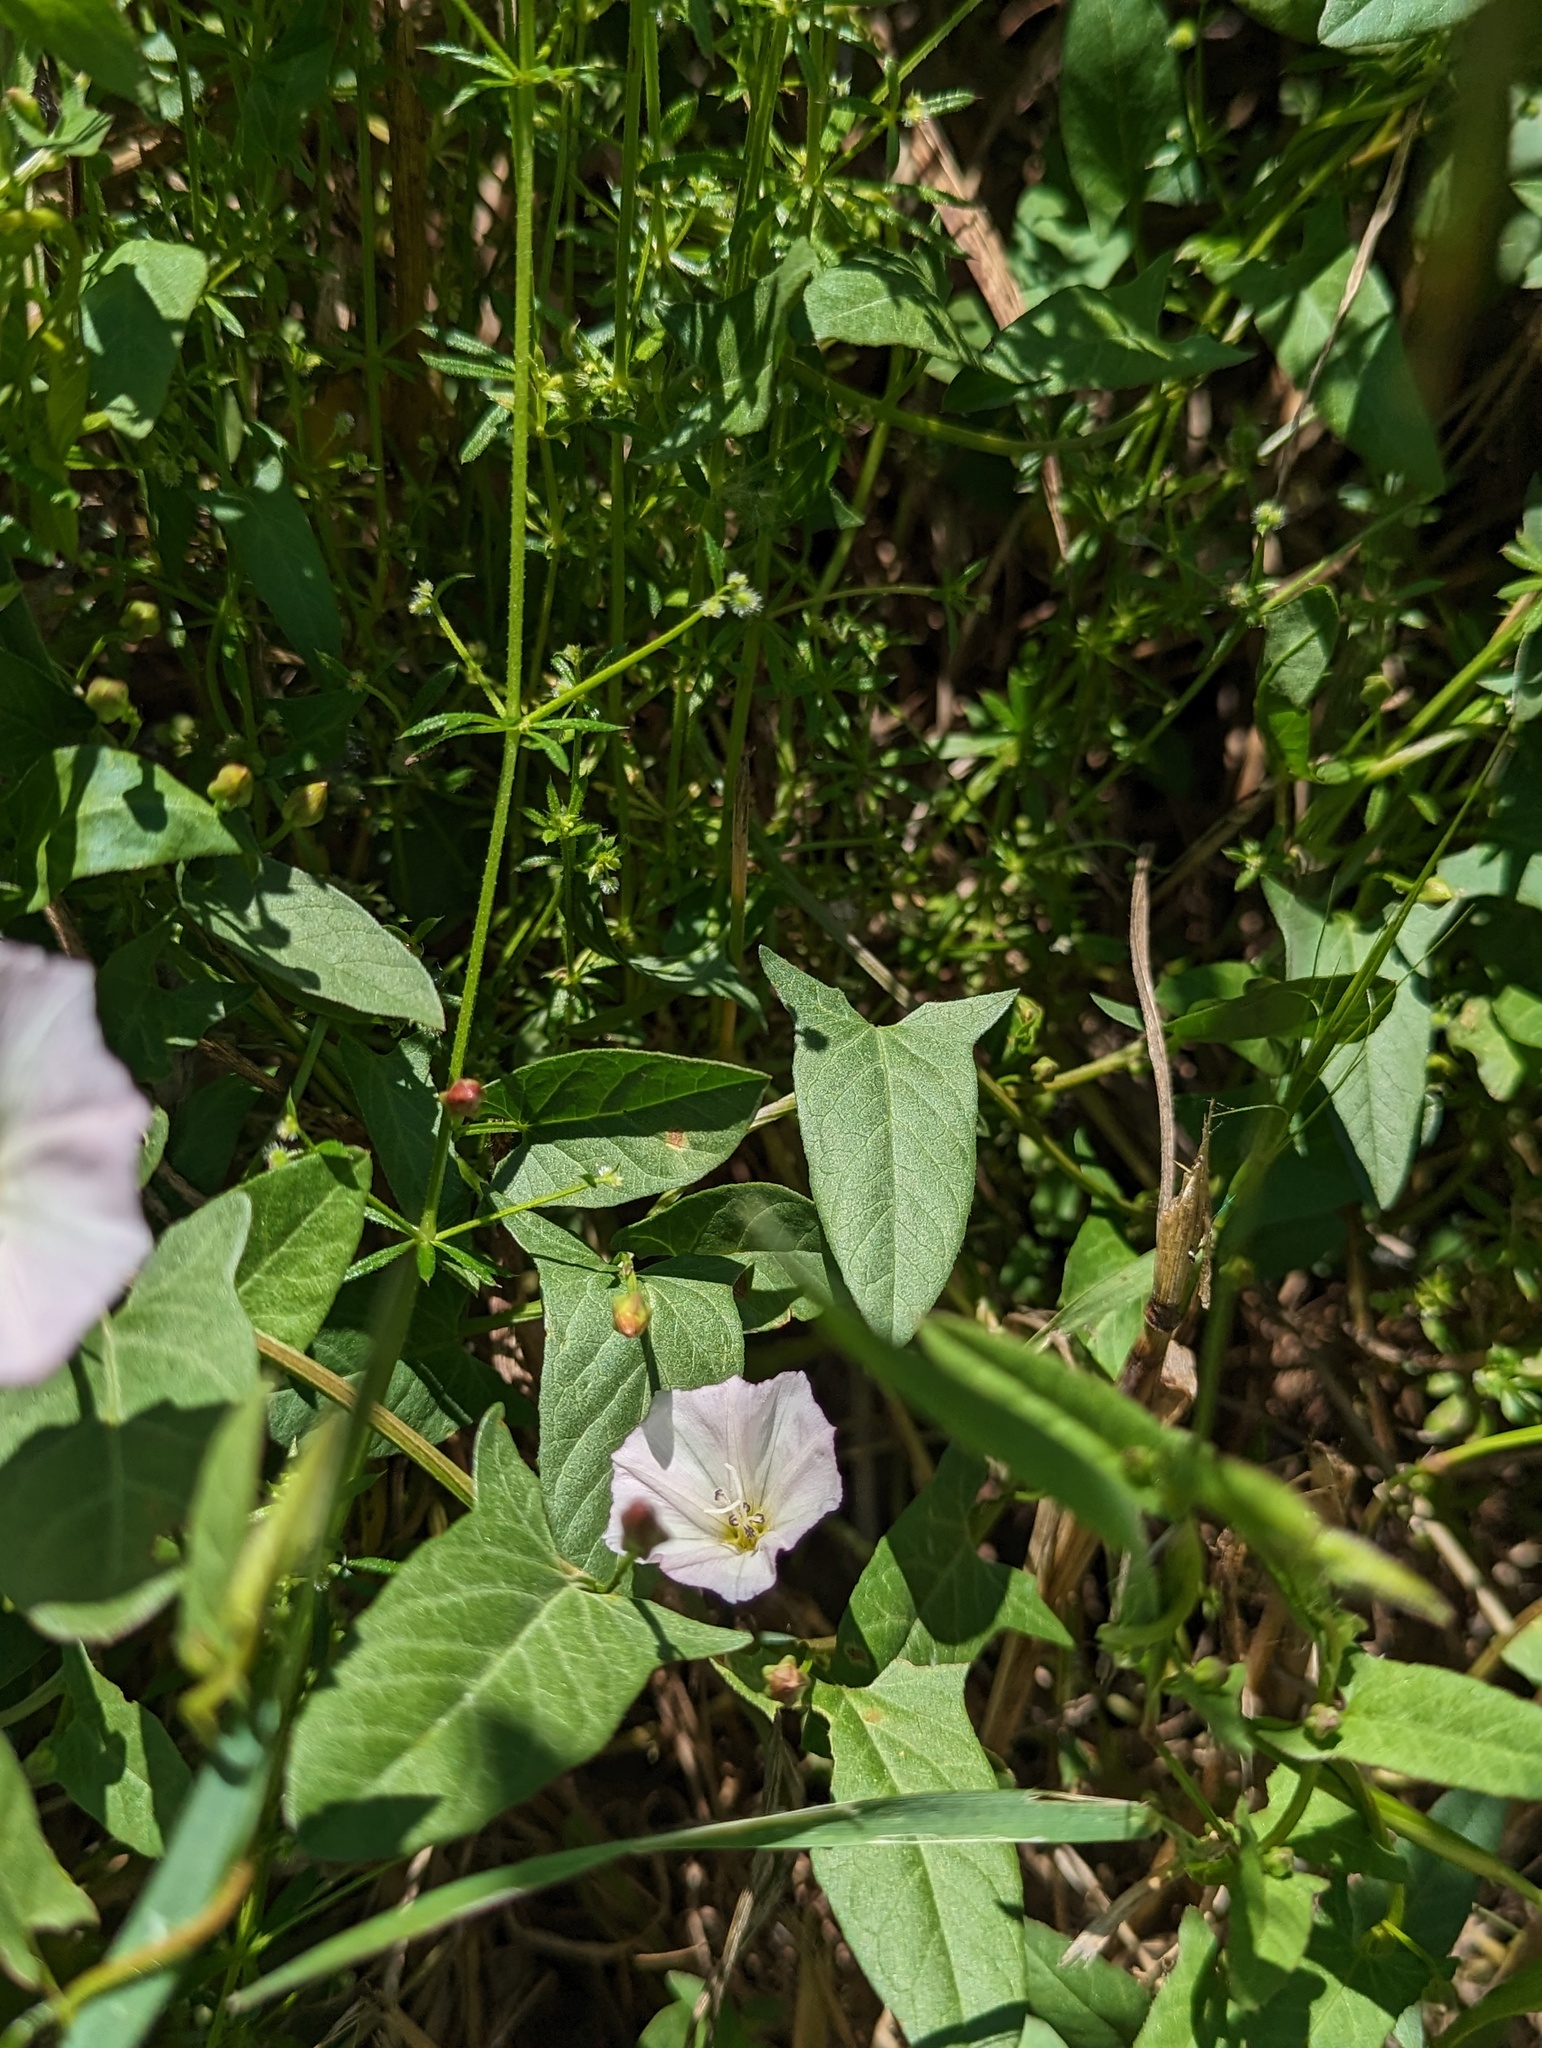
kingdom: Plantae
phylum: Tracheophyta
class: Magnoliopsida
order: Solanales
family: Convolvulaceae
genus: Convolvulus
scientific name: Convolvulus arvensis
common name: Field bindweed
